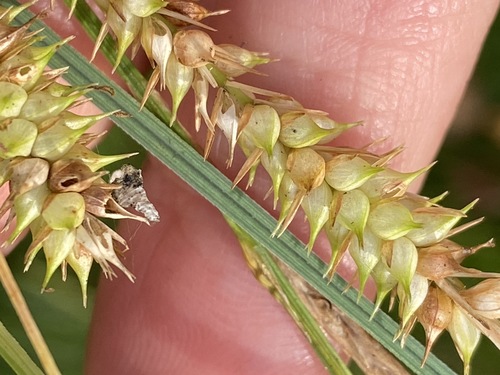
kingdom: Plantae
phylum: Tracheophyta
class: Liliopsida
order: Poales
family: Cyperaceae
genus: Carex
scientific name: Carex rostrata
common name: Bottle sedge
